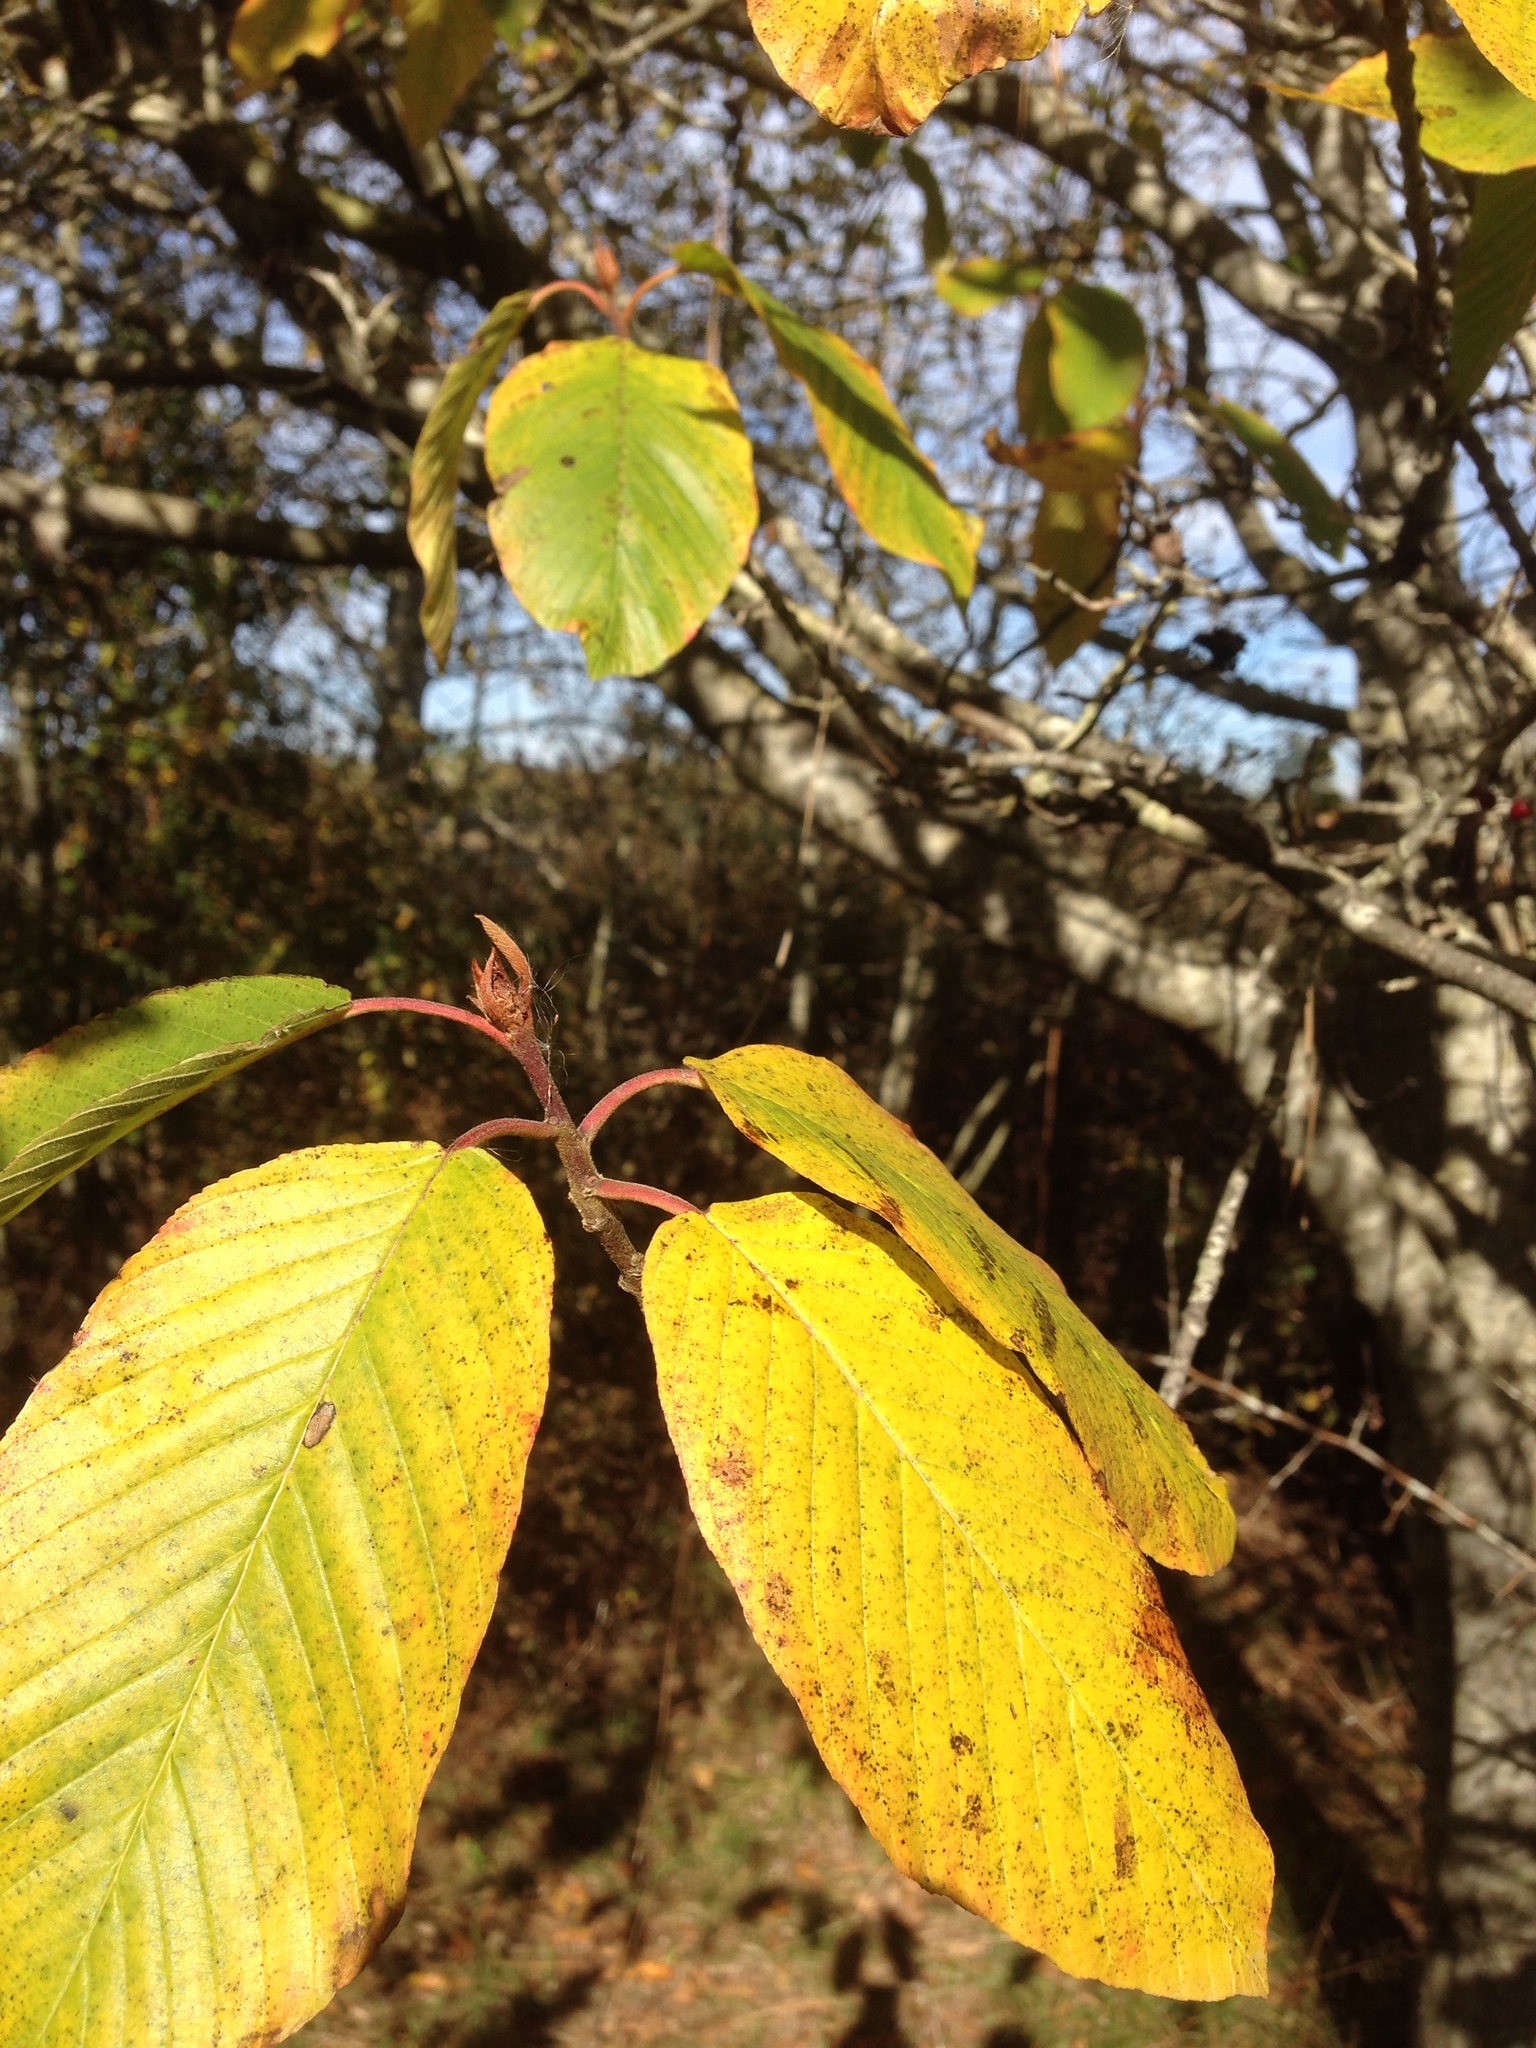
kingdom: Plantae
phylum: Tracheophyta
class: Magnoliopsida
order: Rosales
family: Rhamnaceae
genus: Frangula
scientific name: Frangula purshiana
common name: Cascara buckthorn
